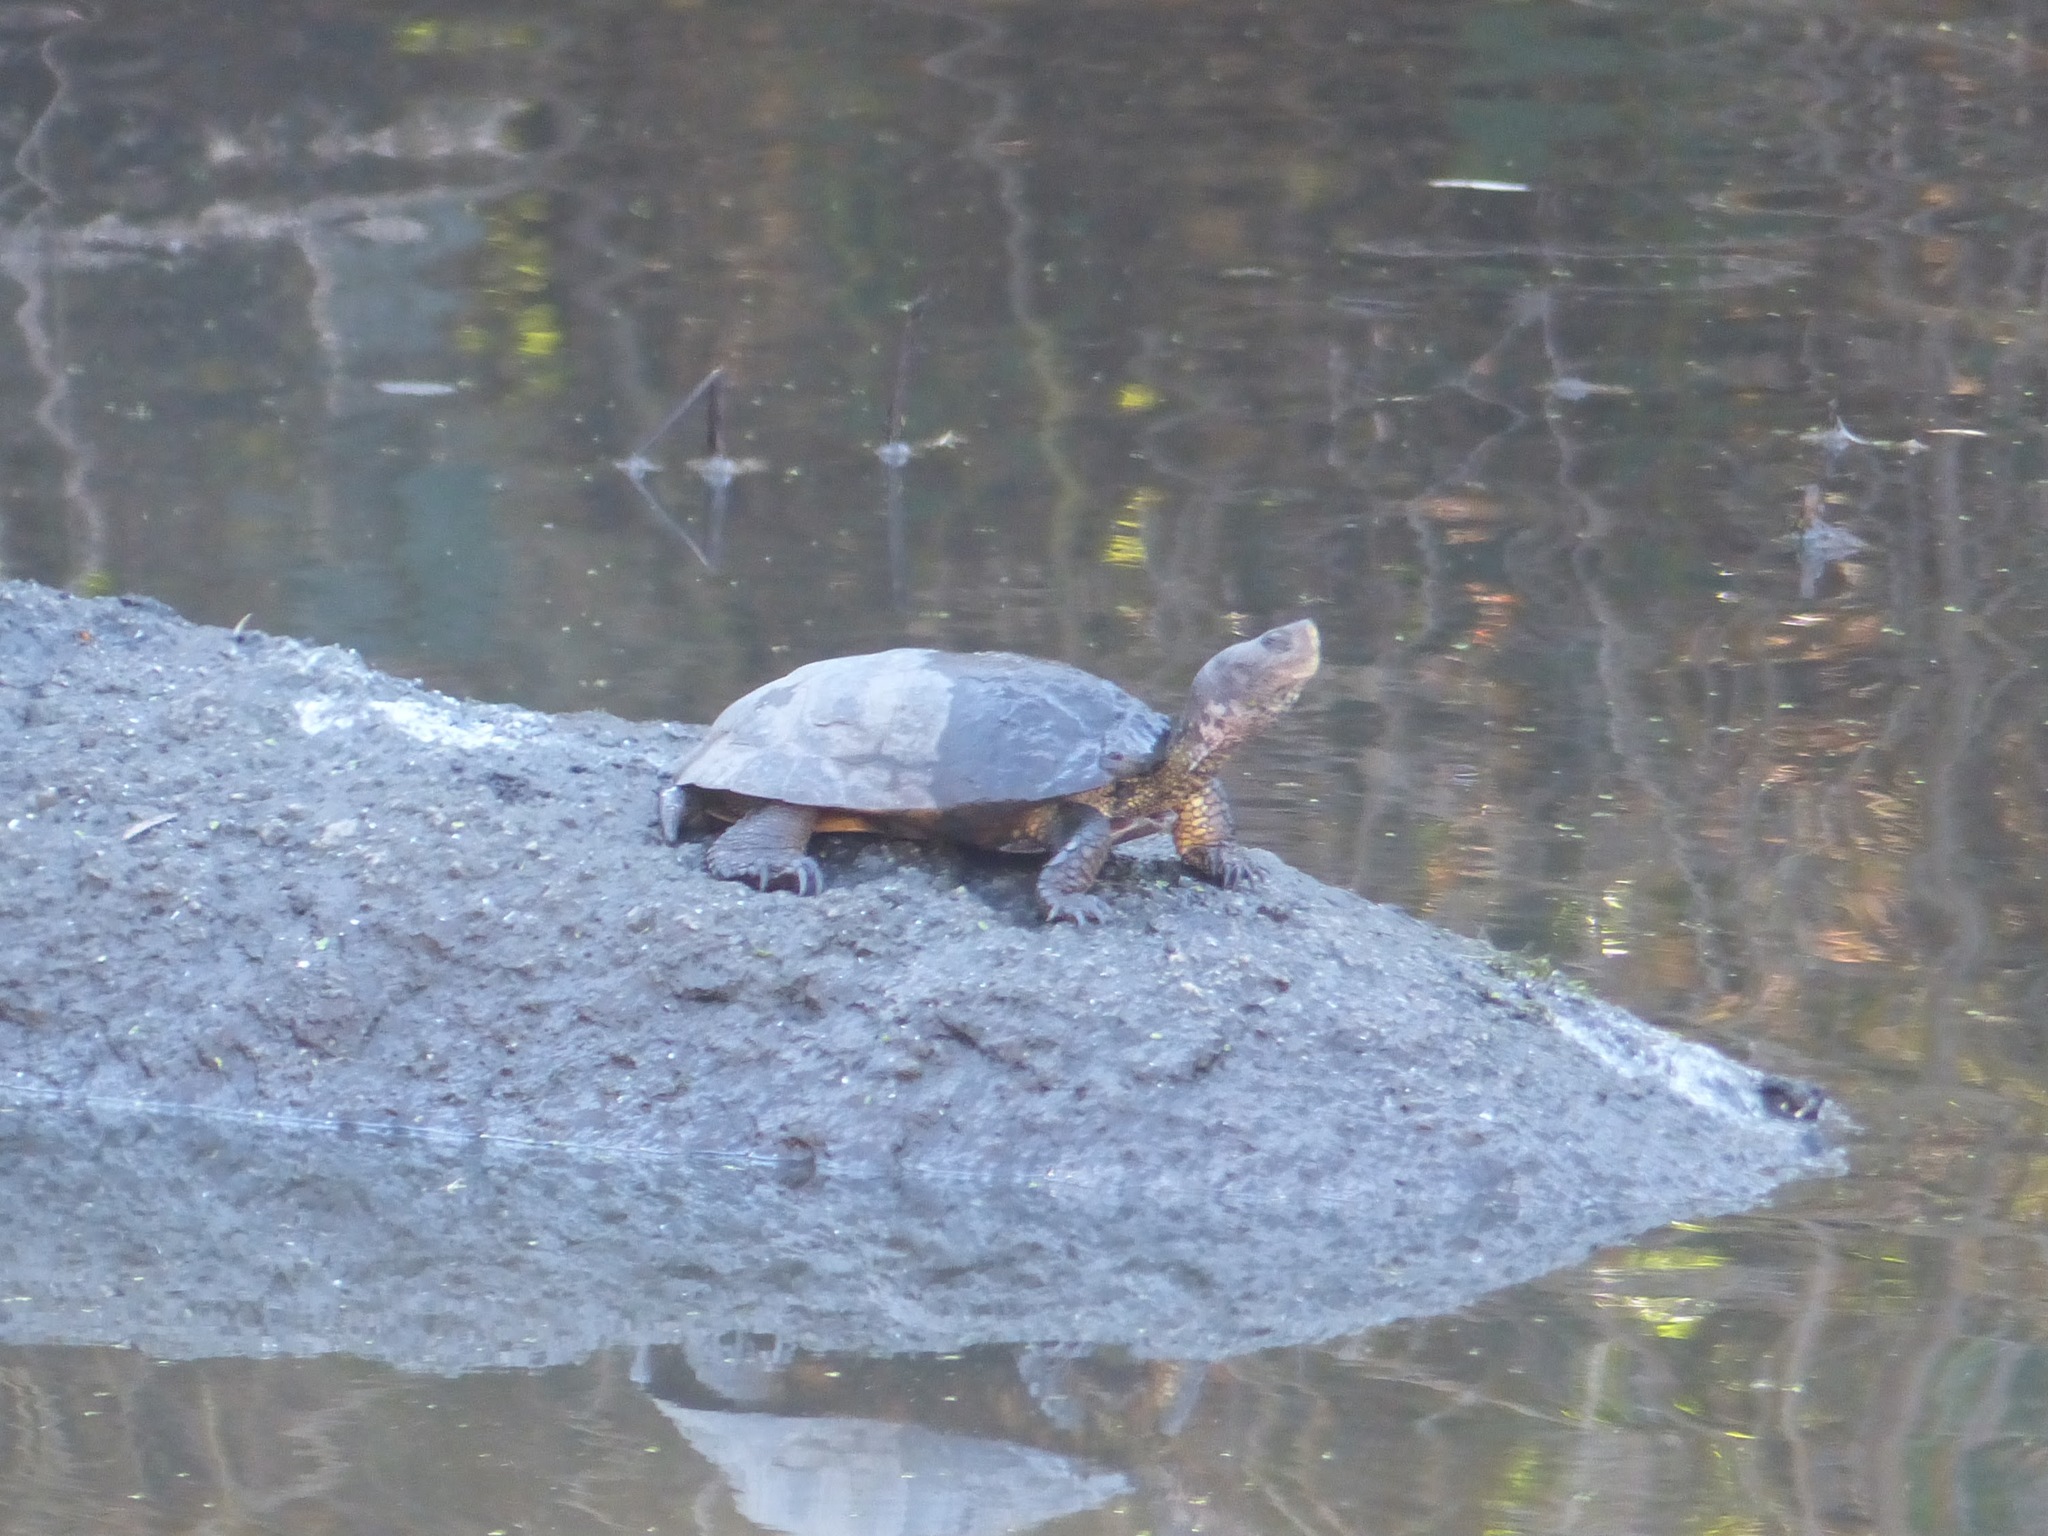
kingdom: Animalia
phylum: Chordata
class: Testudines
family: Emydidae
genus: Actinemys
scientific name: Actinemys marmorata
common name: Western pond turtle
